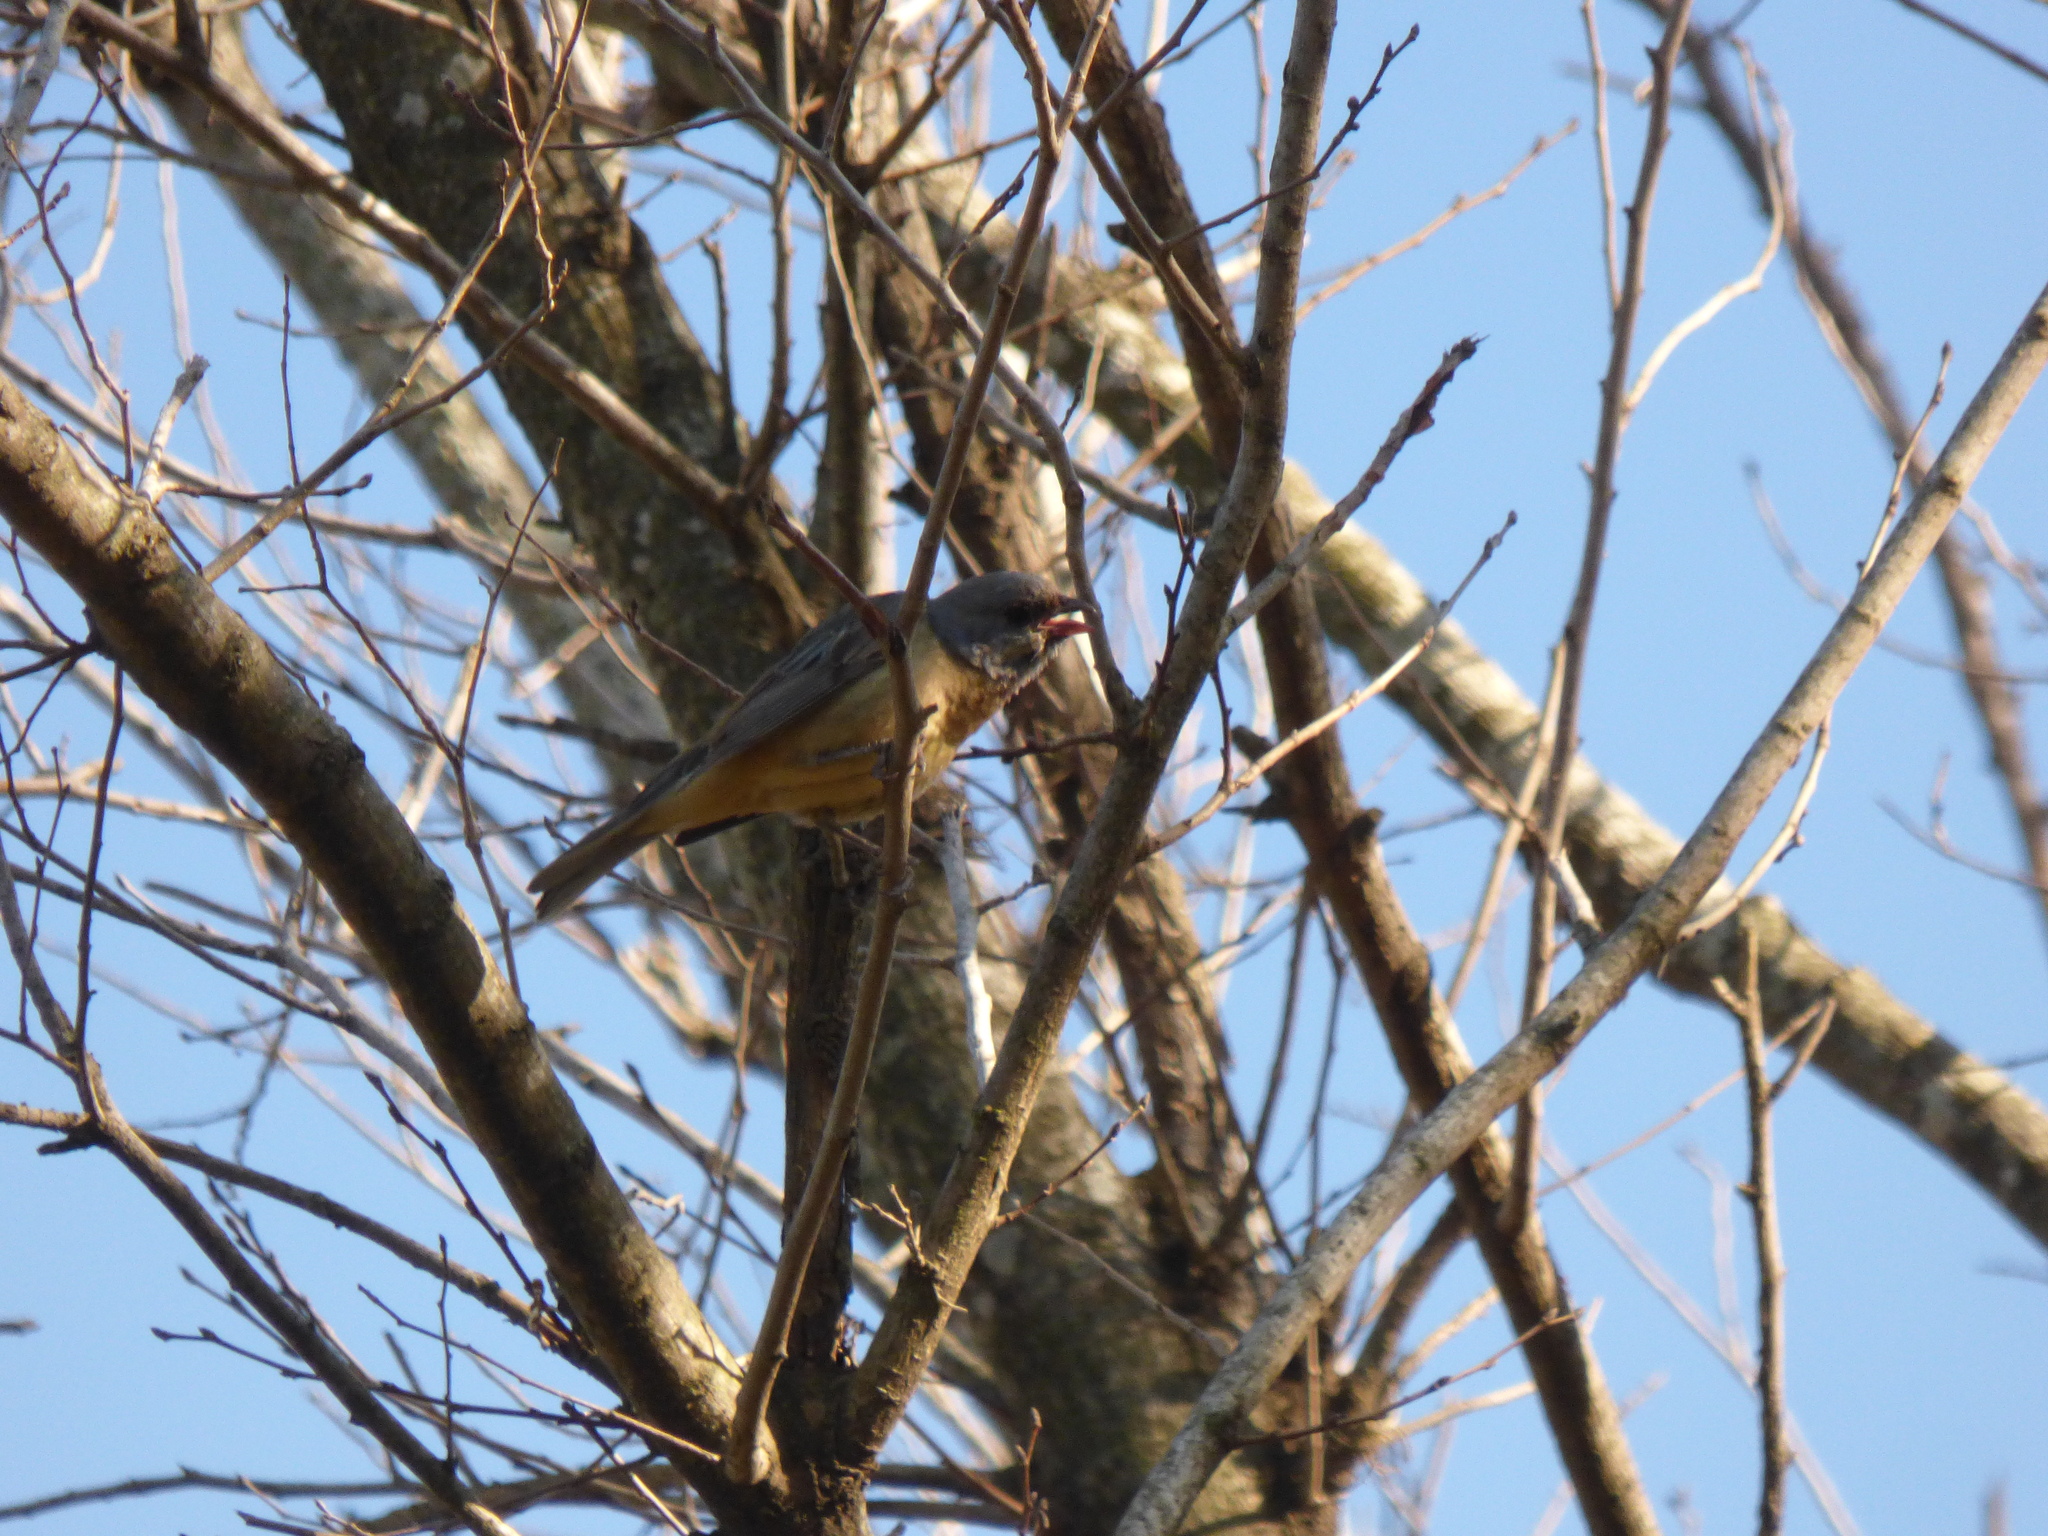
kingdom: Animalia
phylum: Chordata
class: Aves
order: Passeriformes
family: Thraupidae
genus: Rauenia
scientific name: Rauenia bonariensis
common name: Blue-and-yellow tanager
